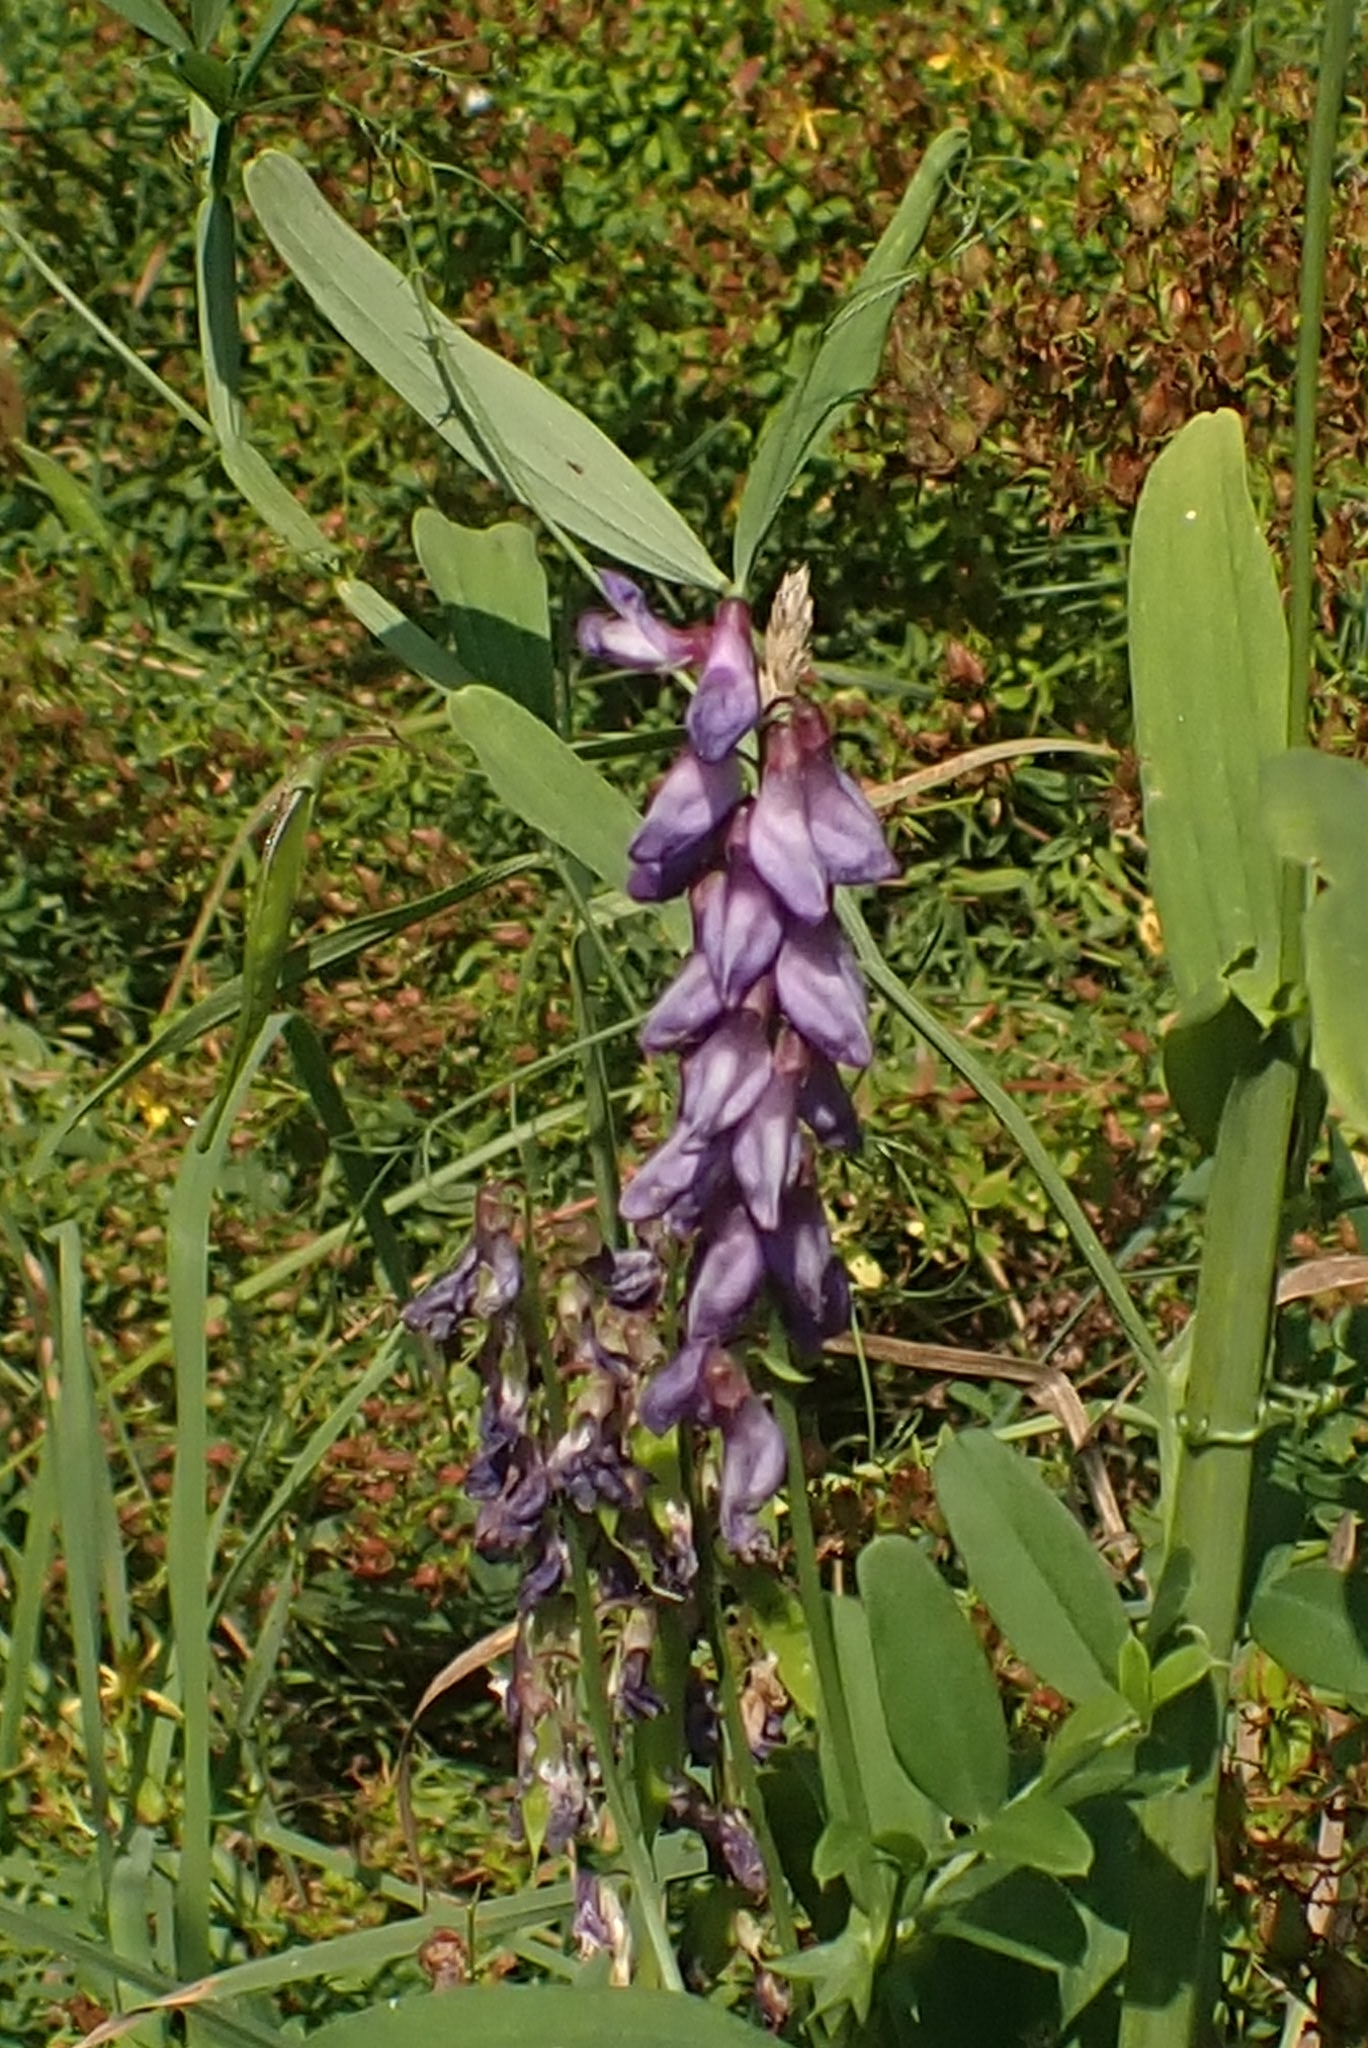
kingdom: Plantae
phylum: Tracheophyta
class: Magnoliopsida
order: Fabales
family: Fabaceae
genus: Vicia
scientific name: Vicia amoena
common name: Cheder ebs
